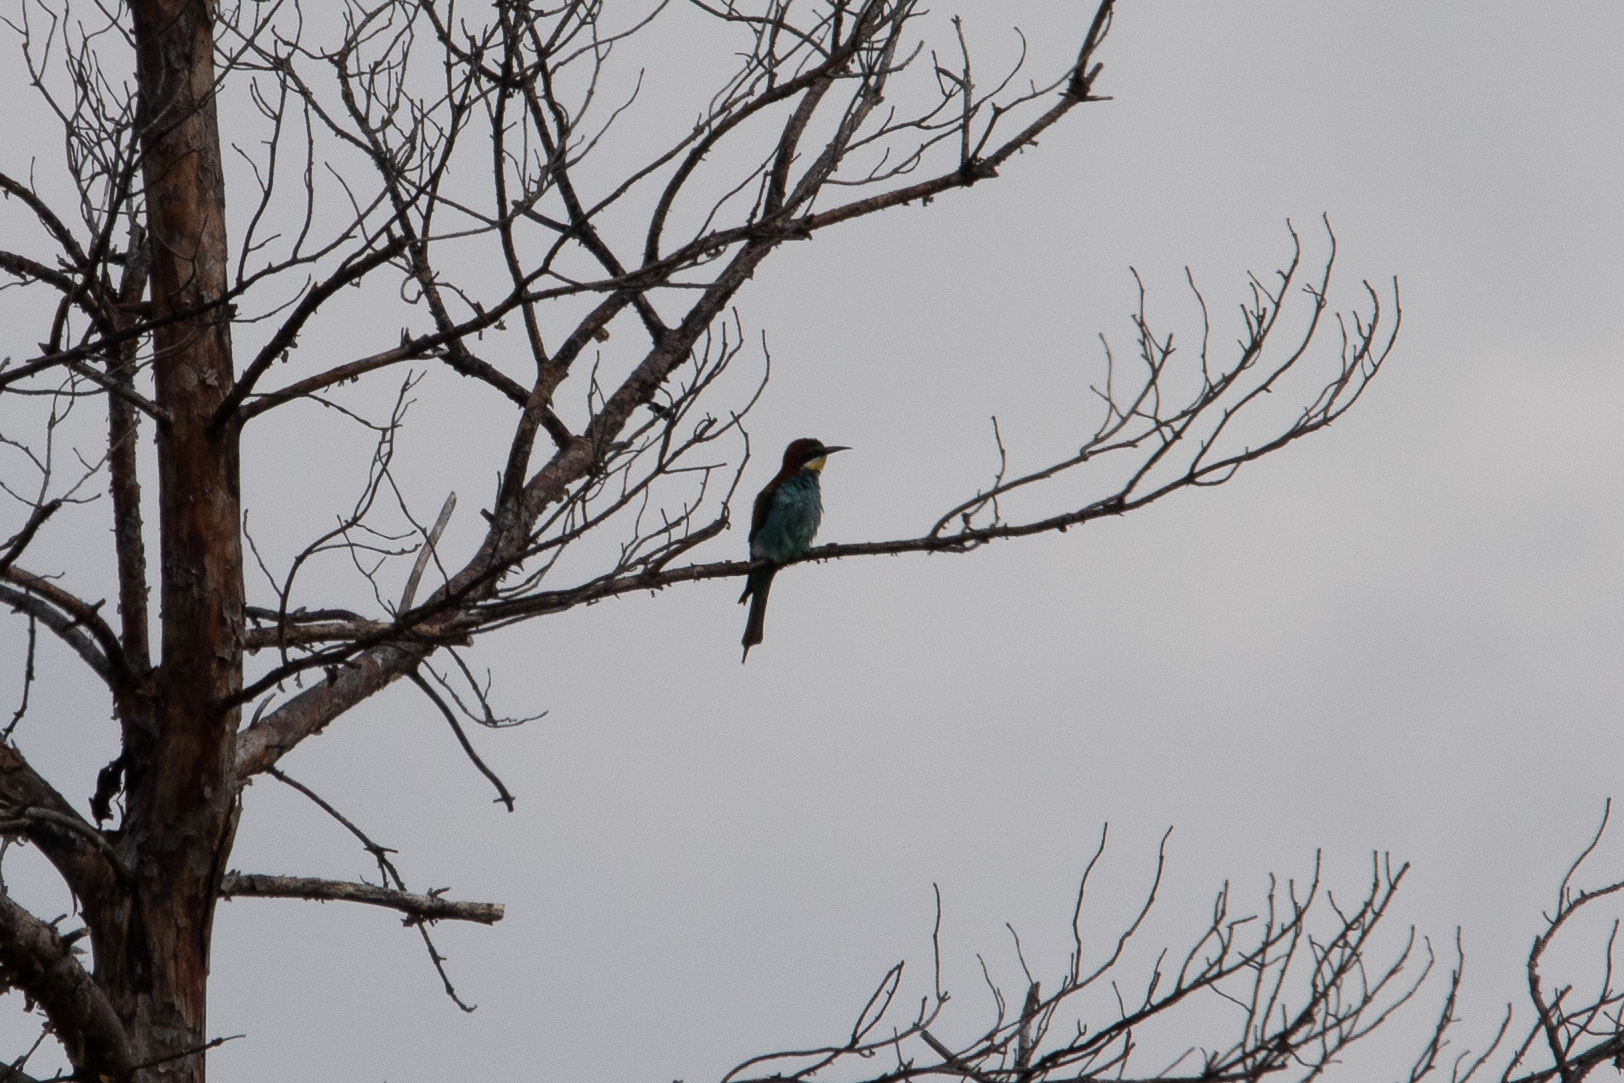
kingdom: Animalia
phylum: Chordata
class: Aves
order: Coraciiformes
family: Meropidae
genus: Merops
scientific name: Merops apiaster
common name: European bee-eater
